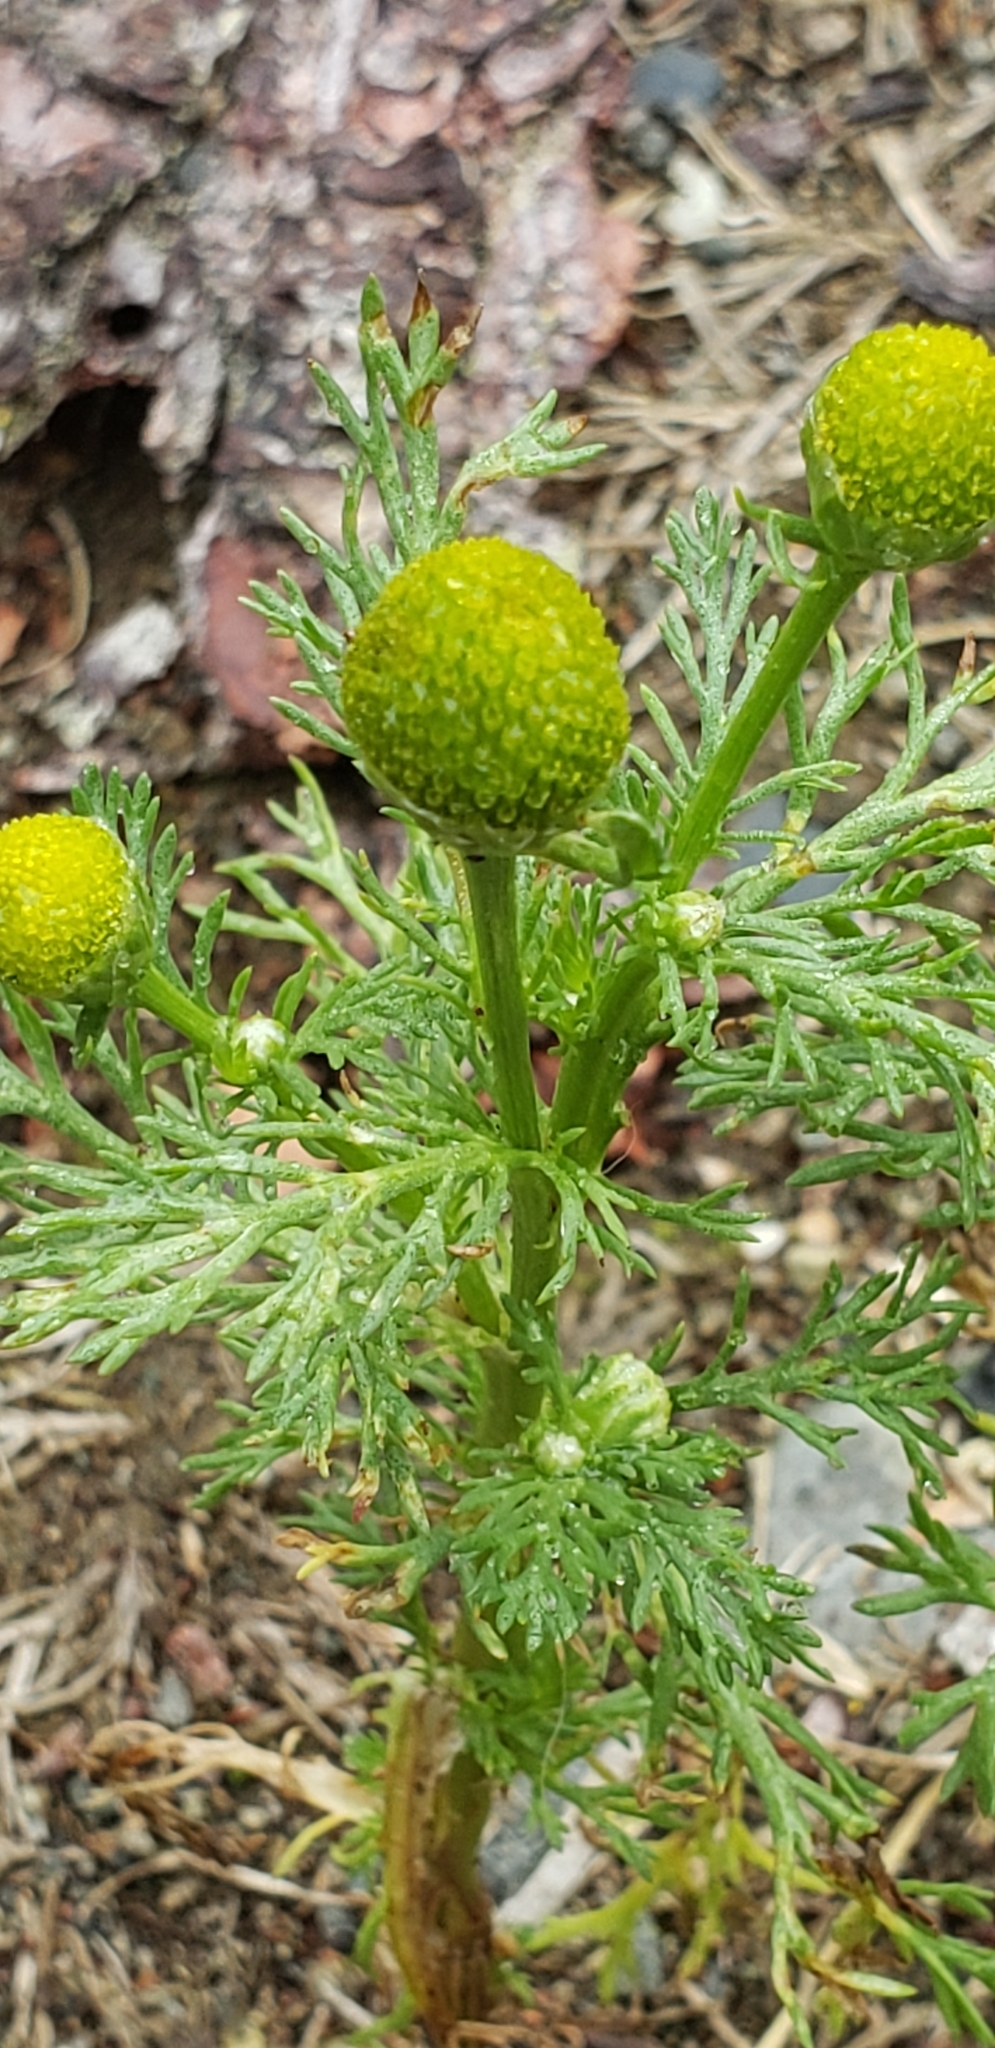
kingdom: Plantae
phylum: Tracheophyta
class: Magnoliopsida
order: Asterales
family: Asteraceae
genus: Matricaria
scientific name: Matricaria discoidea
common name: Disc mayweed
